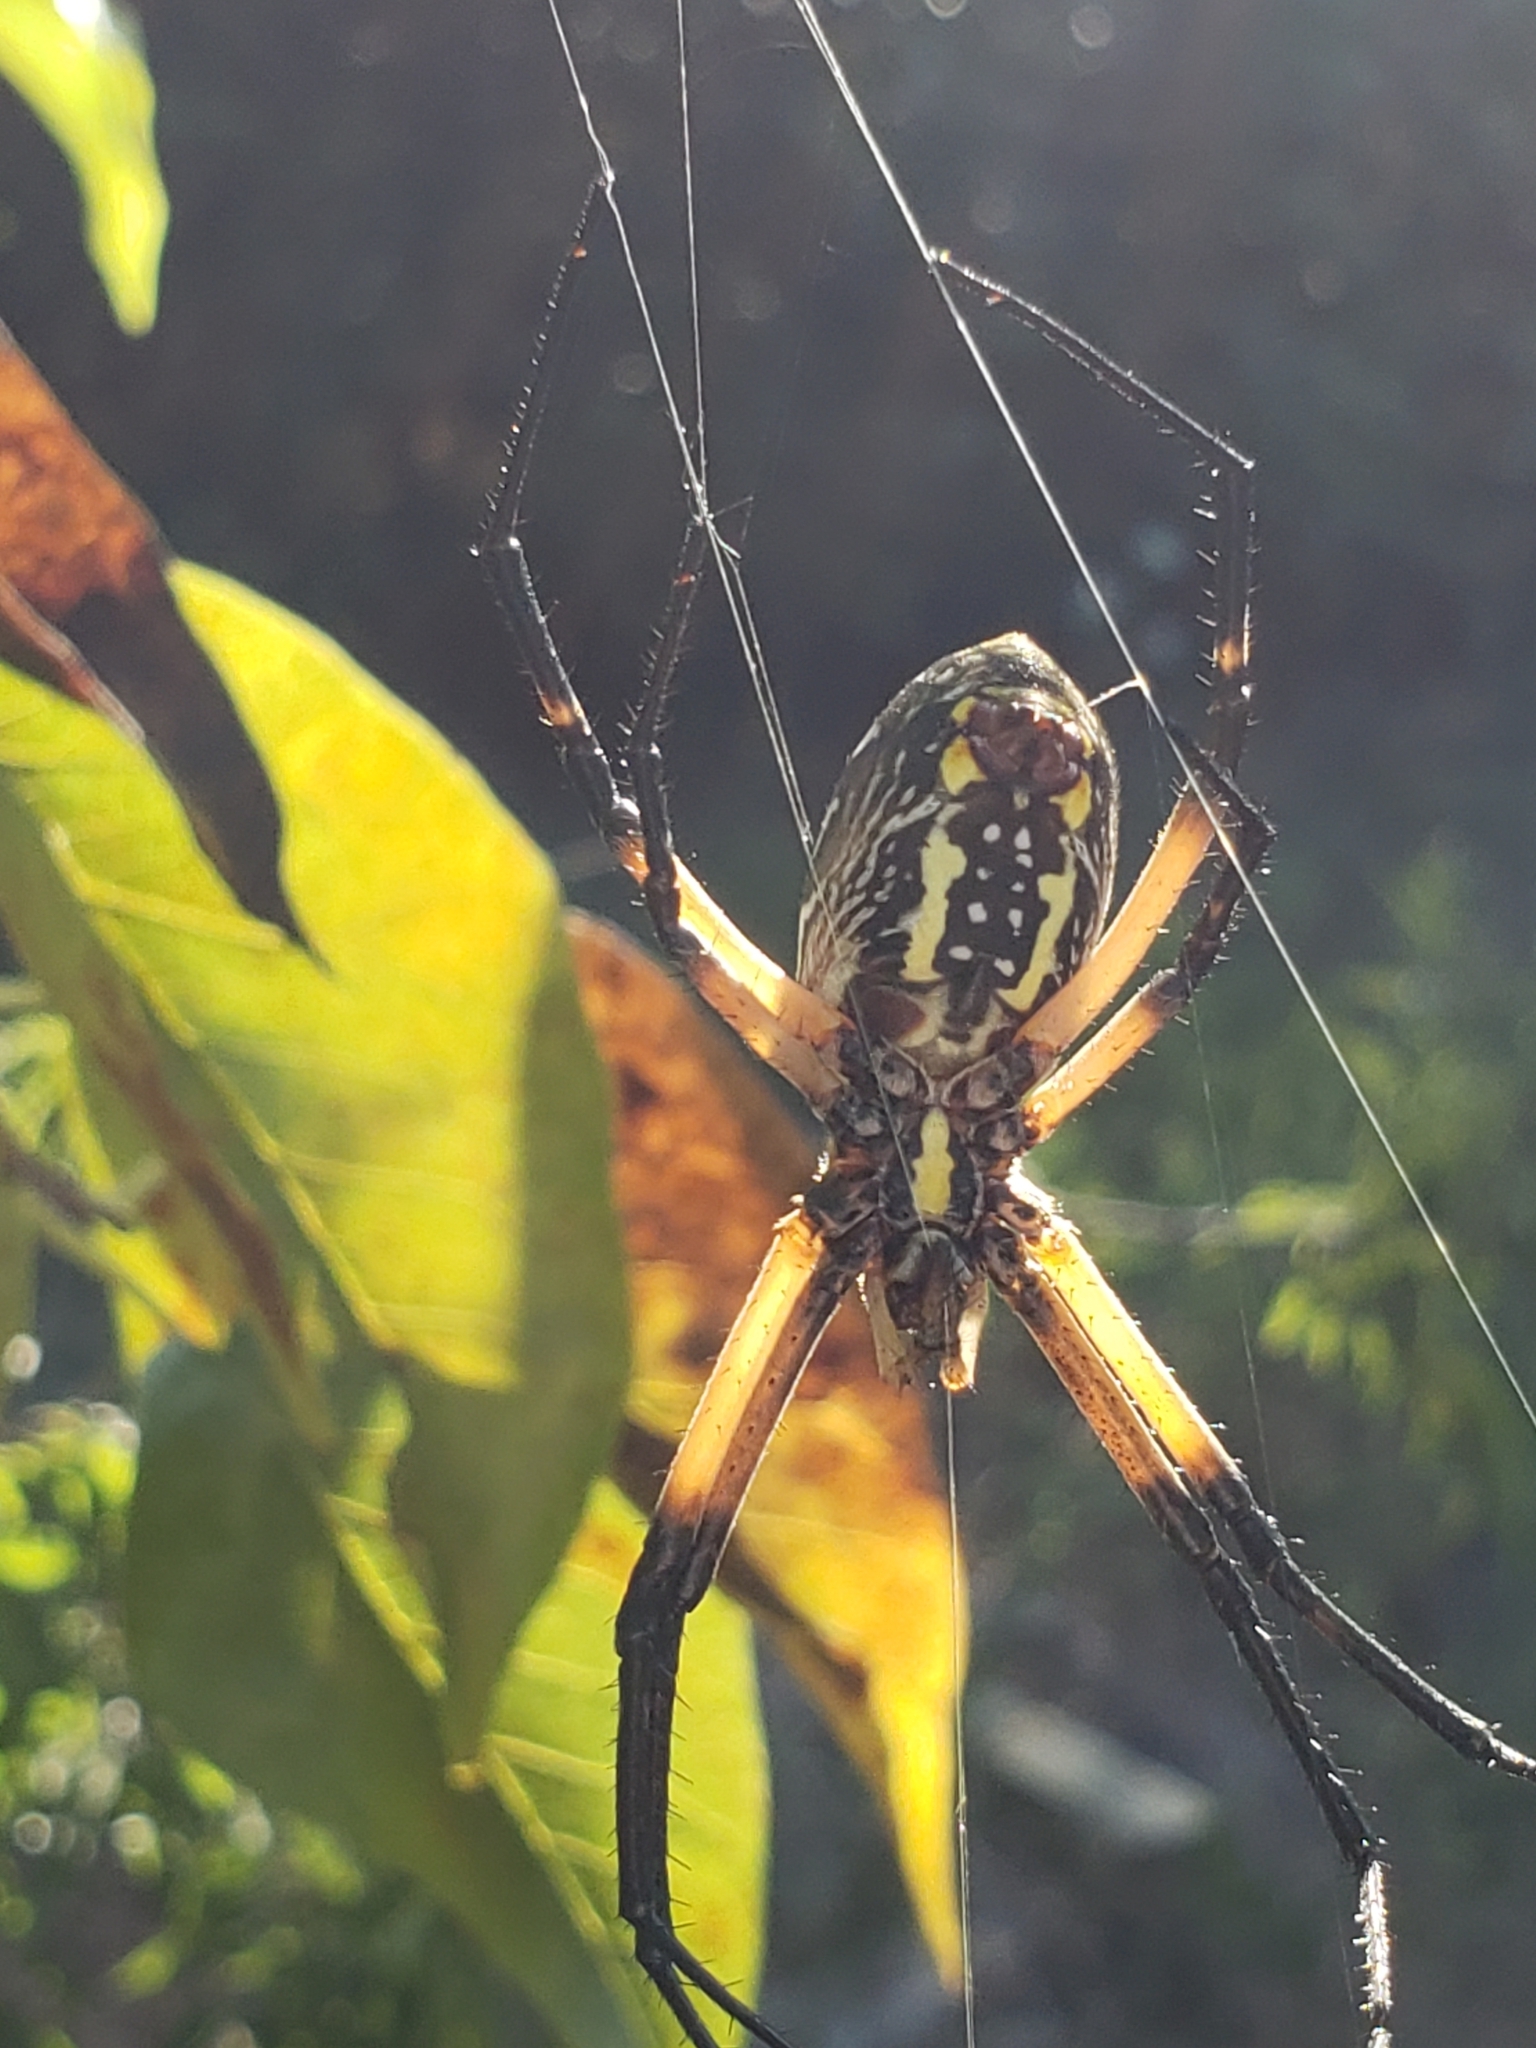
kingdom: Animalia
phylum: Arthropoda
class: Arachnida
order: Araneae
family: Araneidae
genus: Argiope
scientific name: Argiope aurantia
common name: Orb weavers
